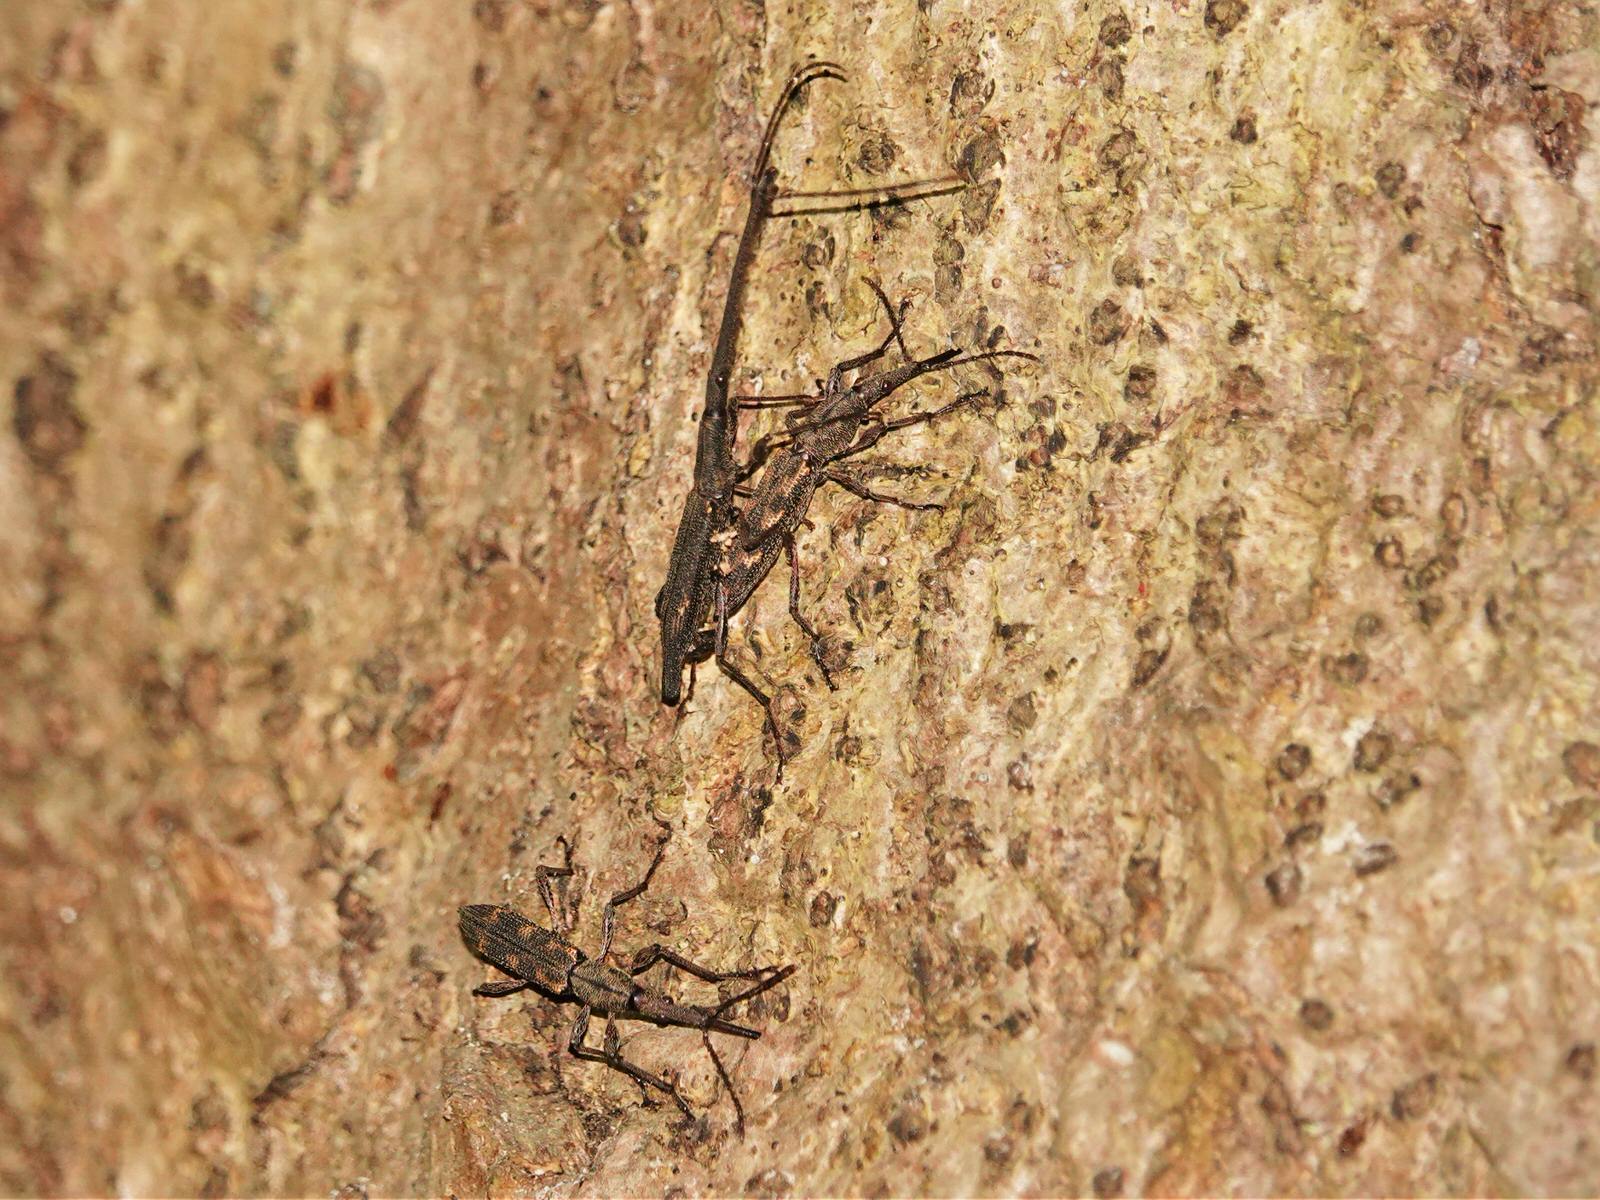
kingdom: Animalia
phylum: Arthropoda
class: Insecta
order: Coleoptera
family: Brentidae
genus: Lasiorhynchus
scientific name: Lasiorhynchus barbicornis
